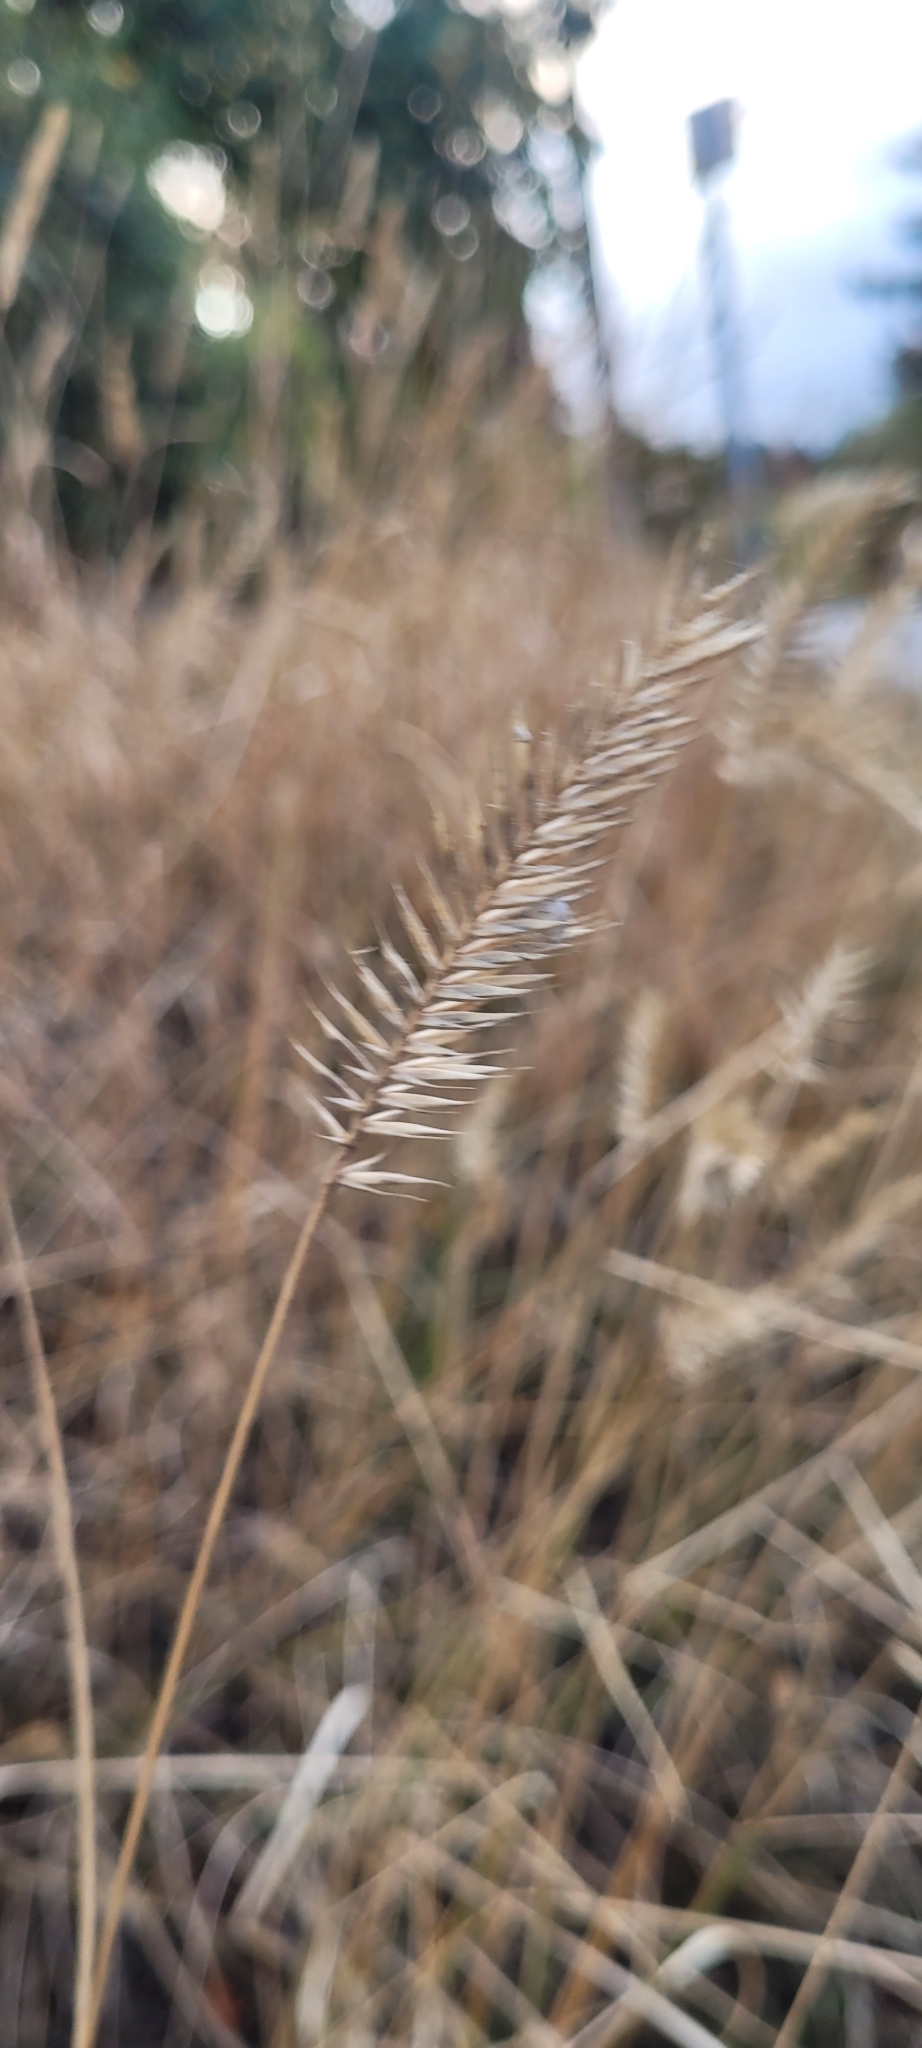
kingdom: Plantae
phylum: Tracheophyta
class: Liliopsida
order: Poales
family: Poaceae
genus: Agropyron
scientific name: Agropyron cristatum
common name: Crested wheatgrass
